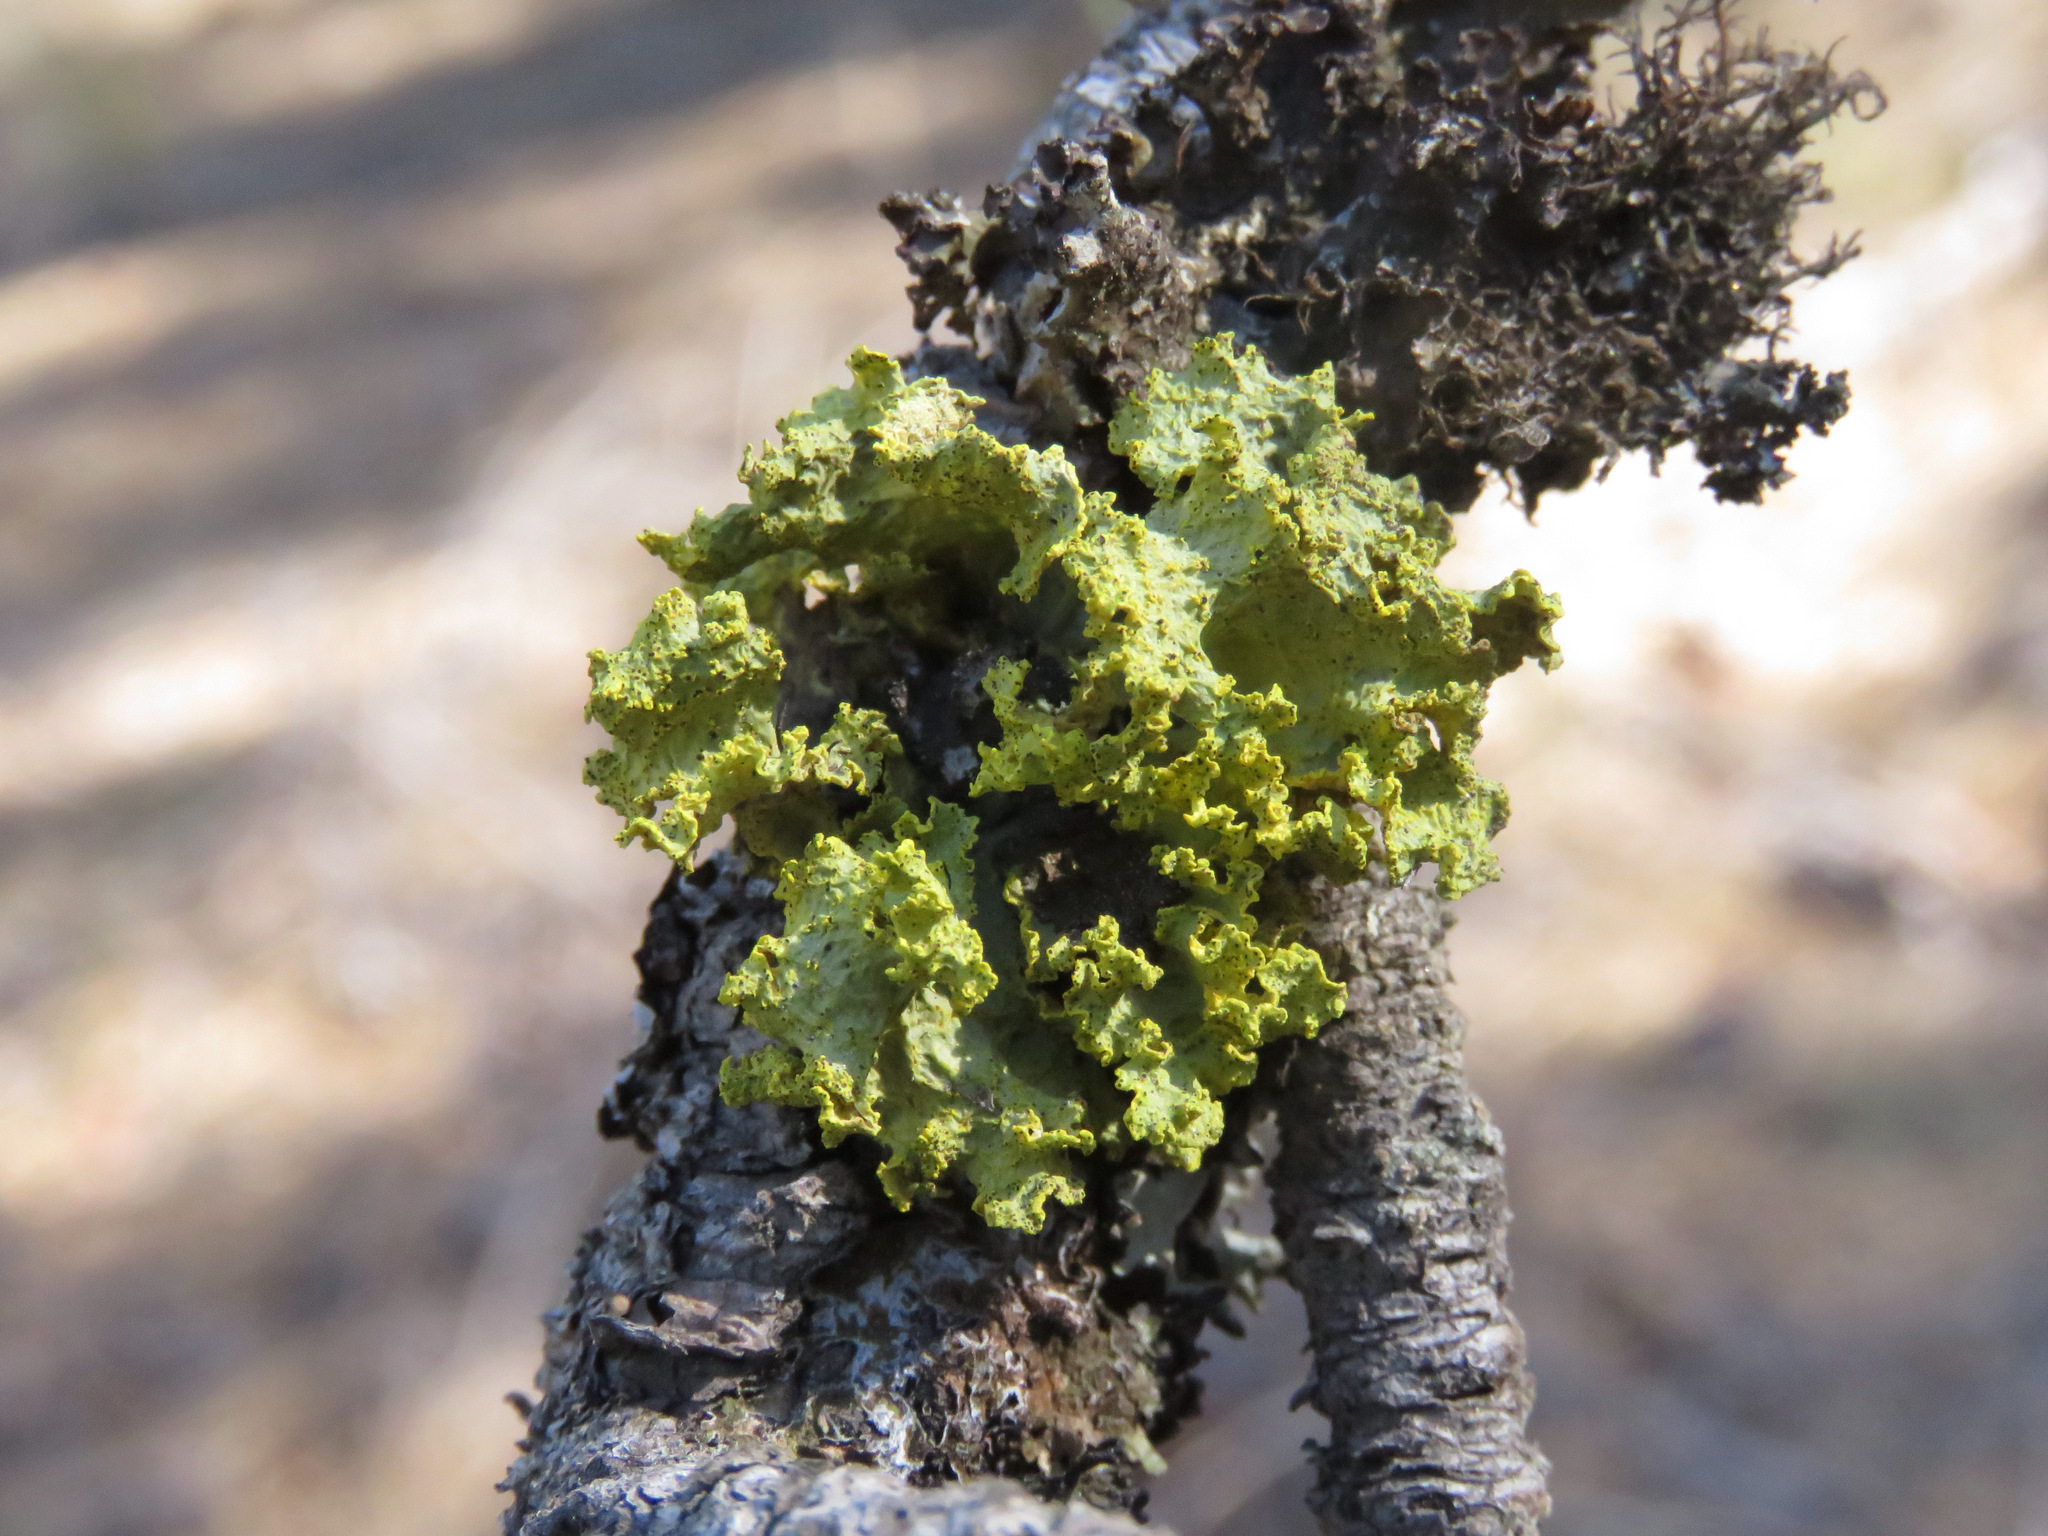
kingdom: Fungi
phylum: Ascomycota
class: Lecanoromycetes
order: Lecanorales
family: Parmeliaceae
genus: Vulpicida
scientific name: Vulpicida canadensis
